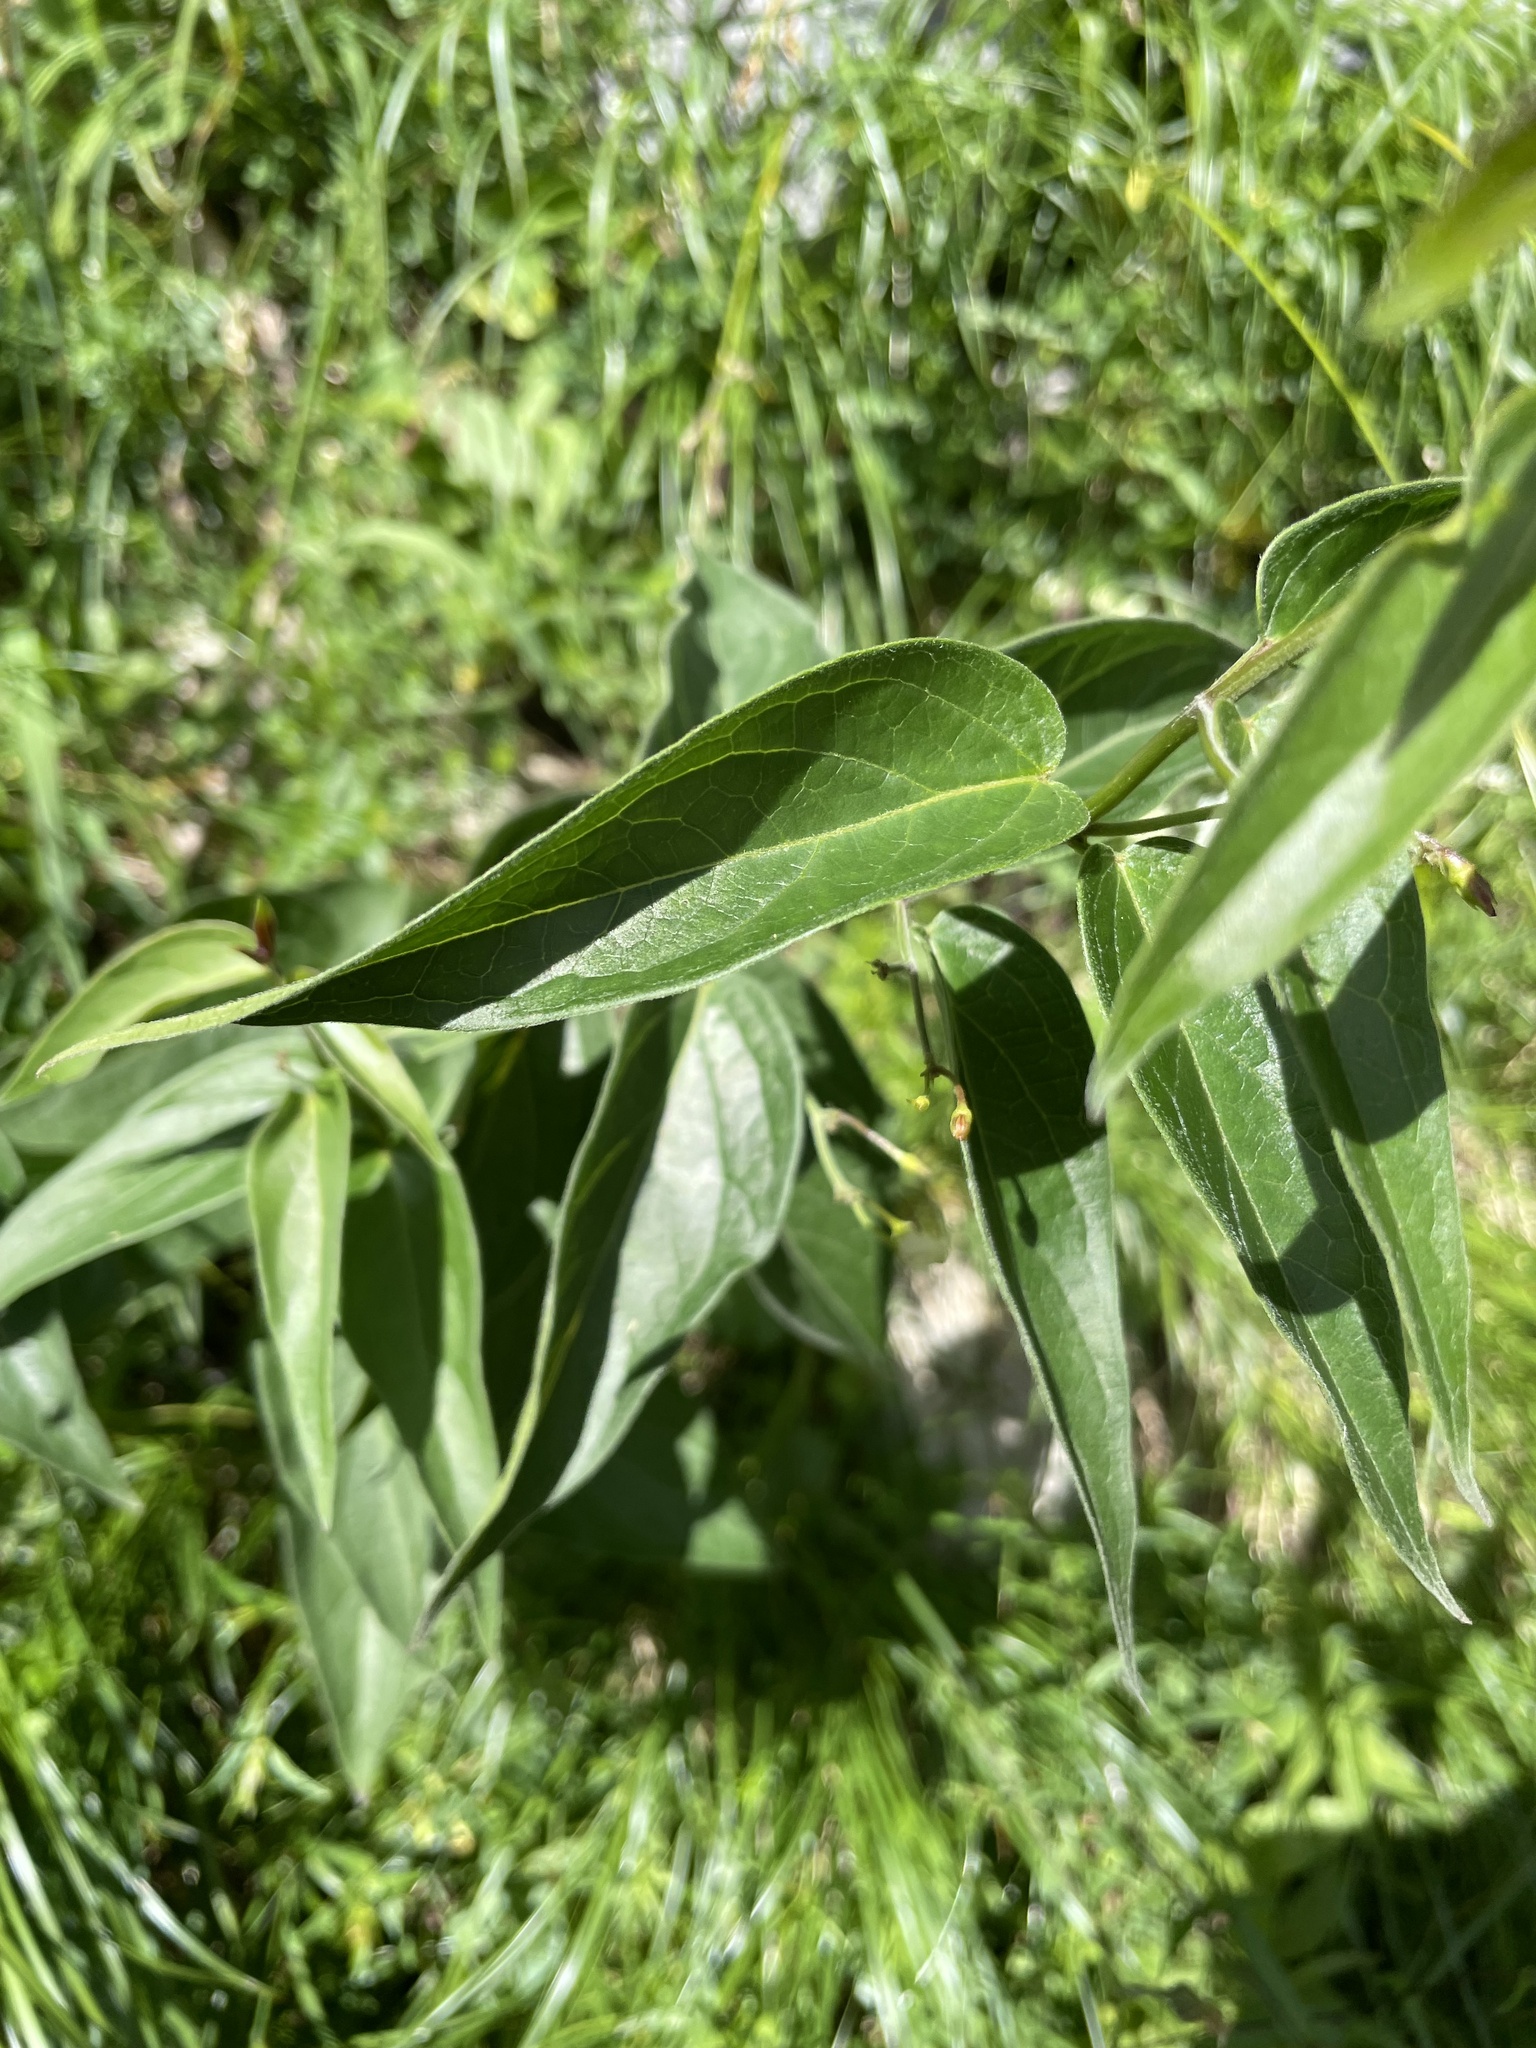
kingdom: Plantae
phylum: Tracheophyta
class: Magnoliopsida
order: Gentianales
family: Apocynaceae
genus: Vincetoxicum
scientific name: Vincetoxicum hirundinaria
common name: White swallowwort
